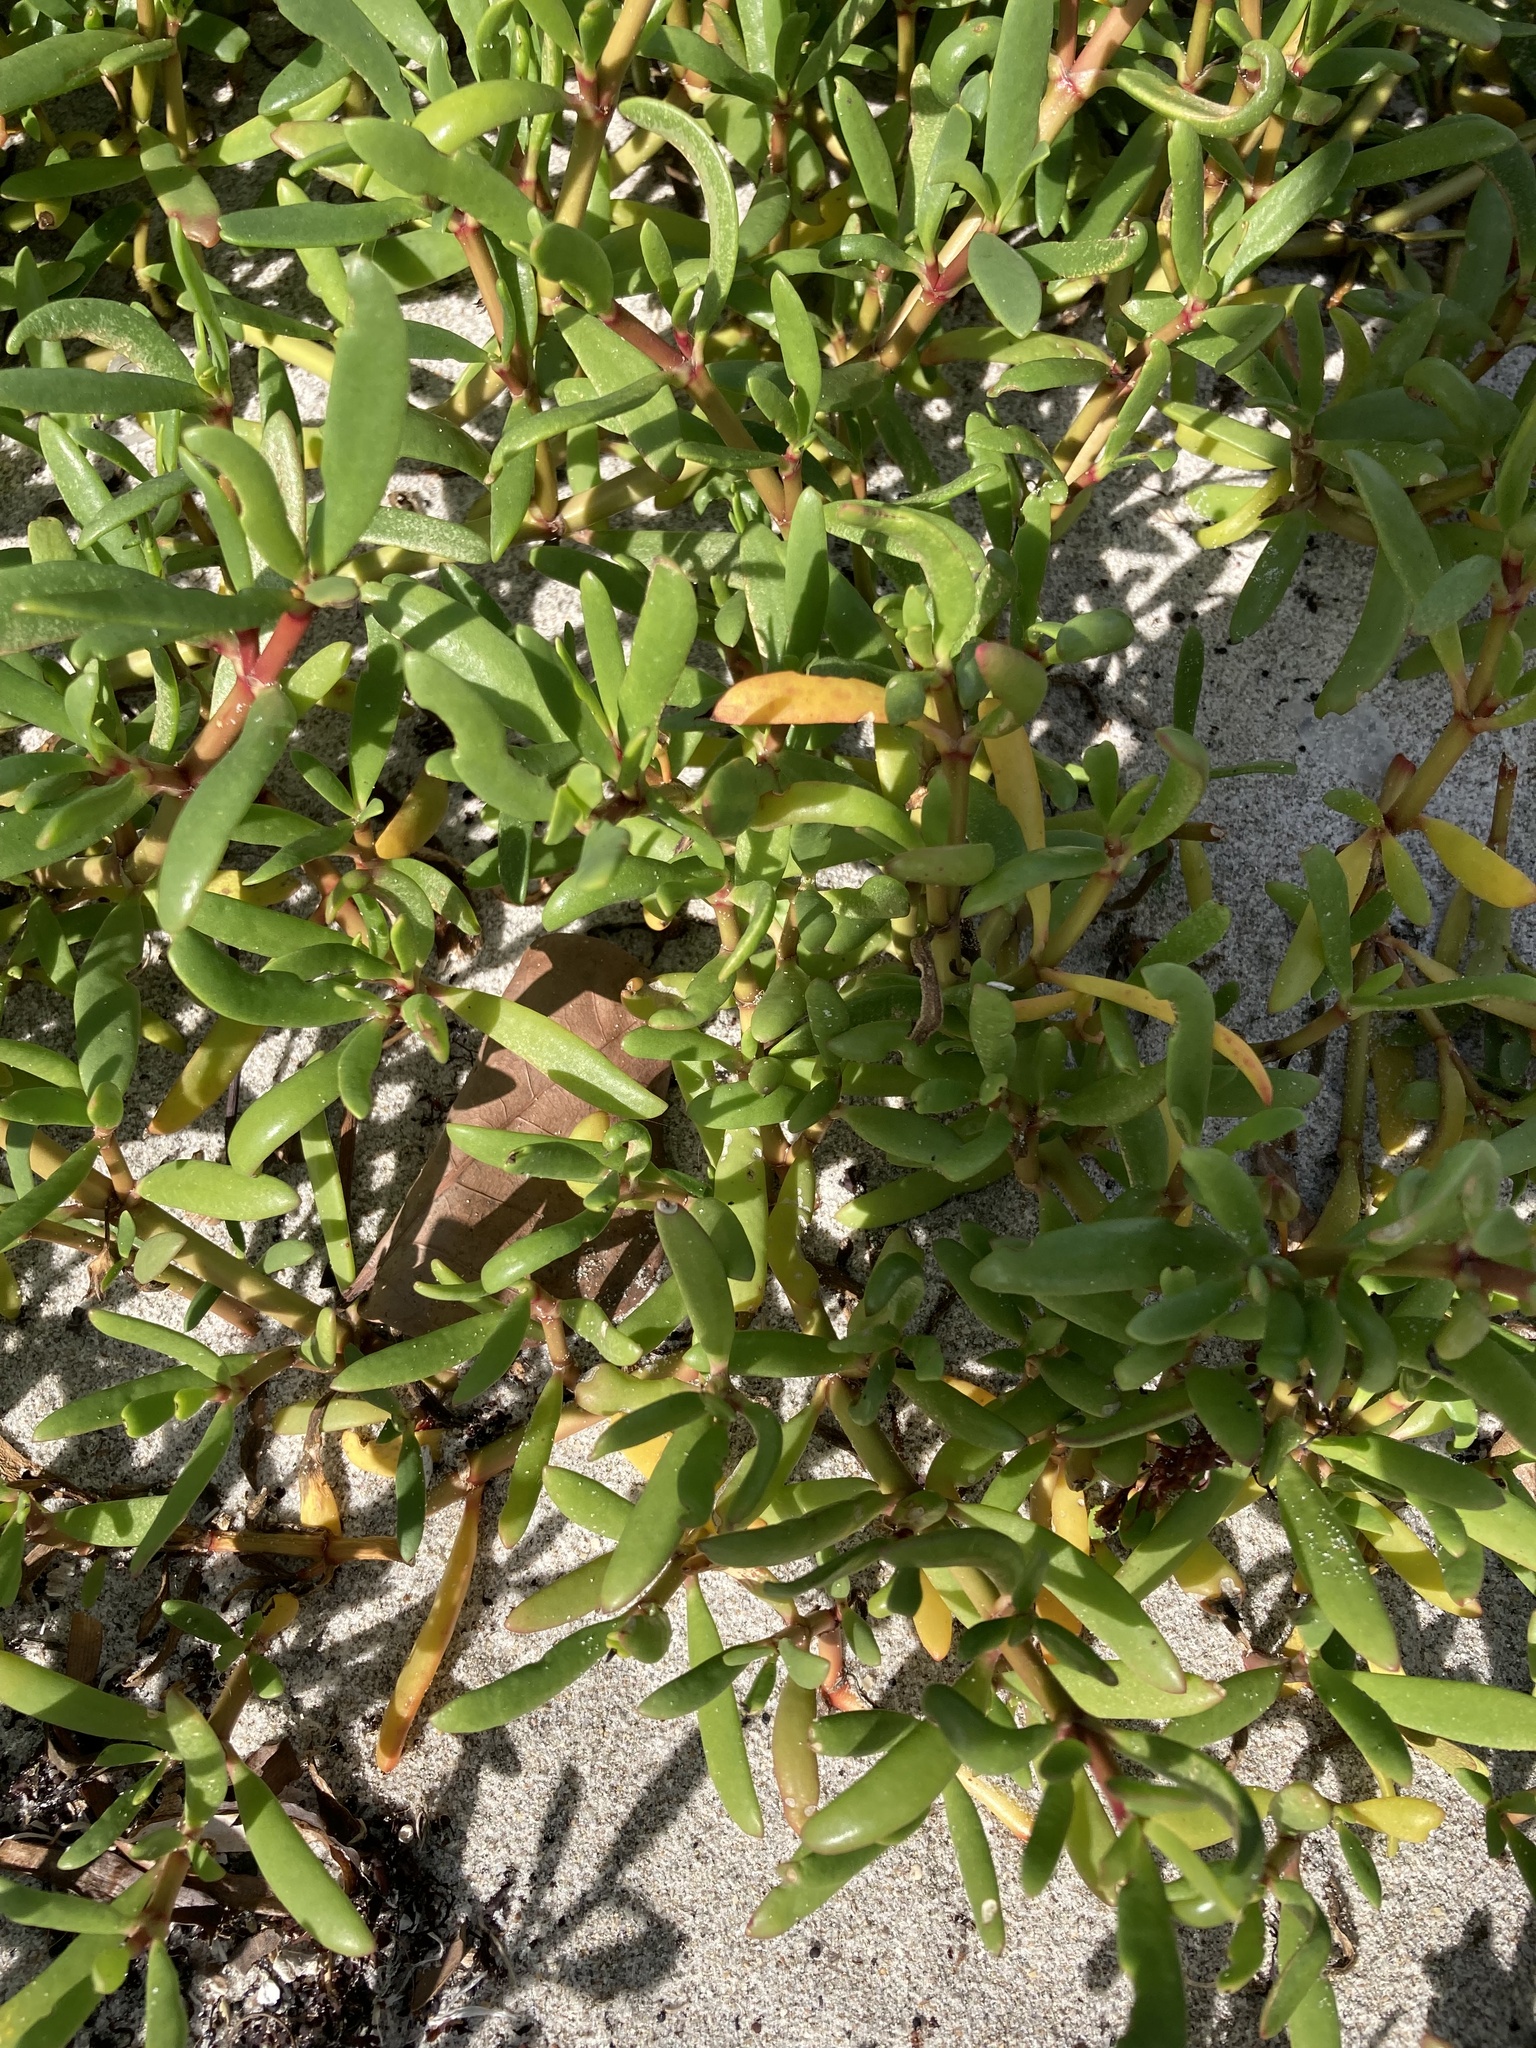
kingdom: Plantae
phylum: Tracheophyta
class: Magnoliopsida
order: Caryophyllales
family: Aizoaceae
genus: Sesuvium
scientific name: Sesuvium portulacastrum
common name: Sea-purslane
